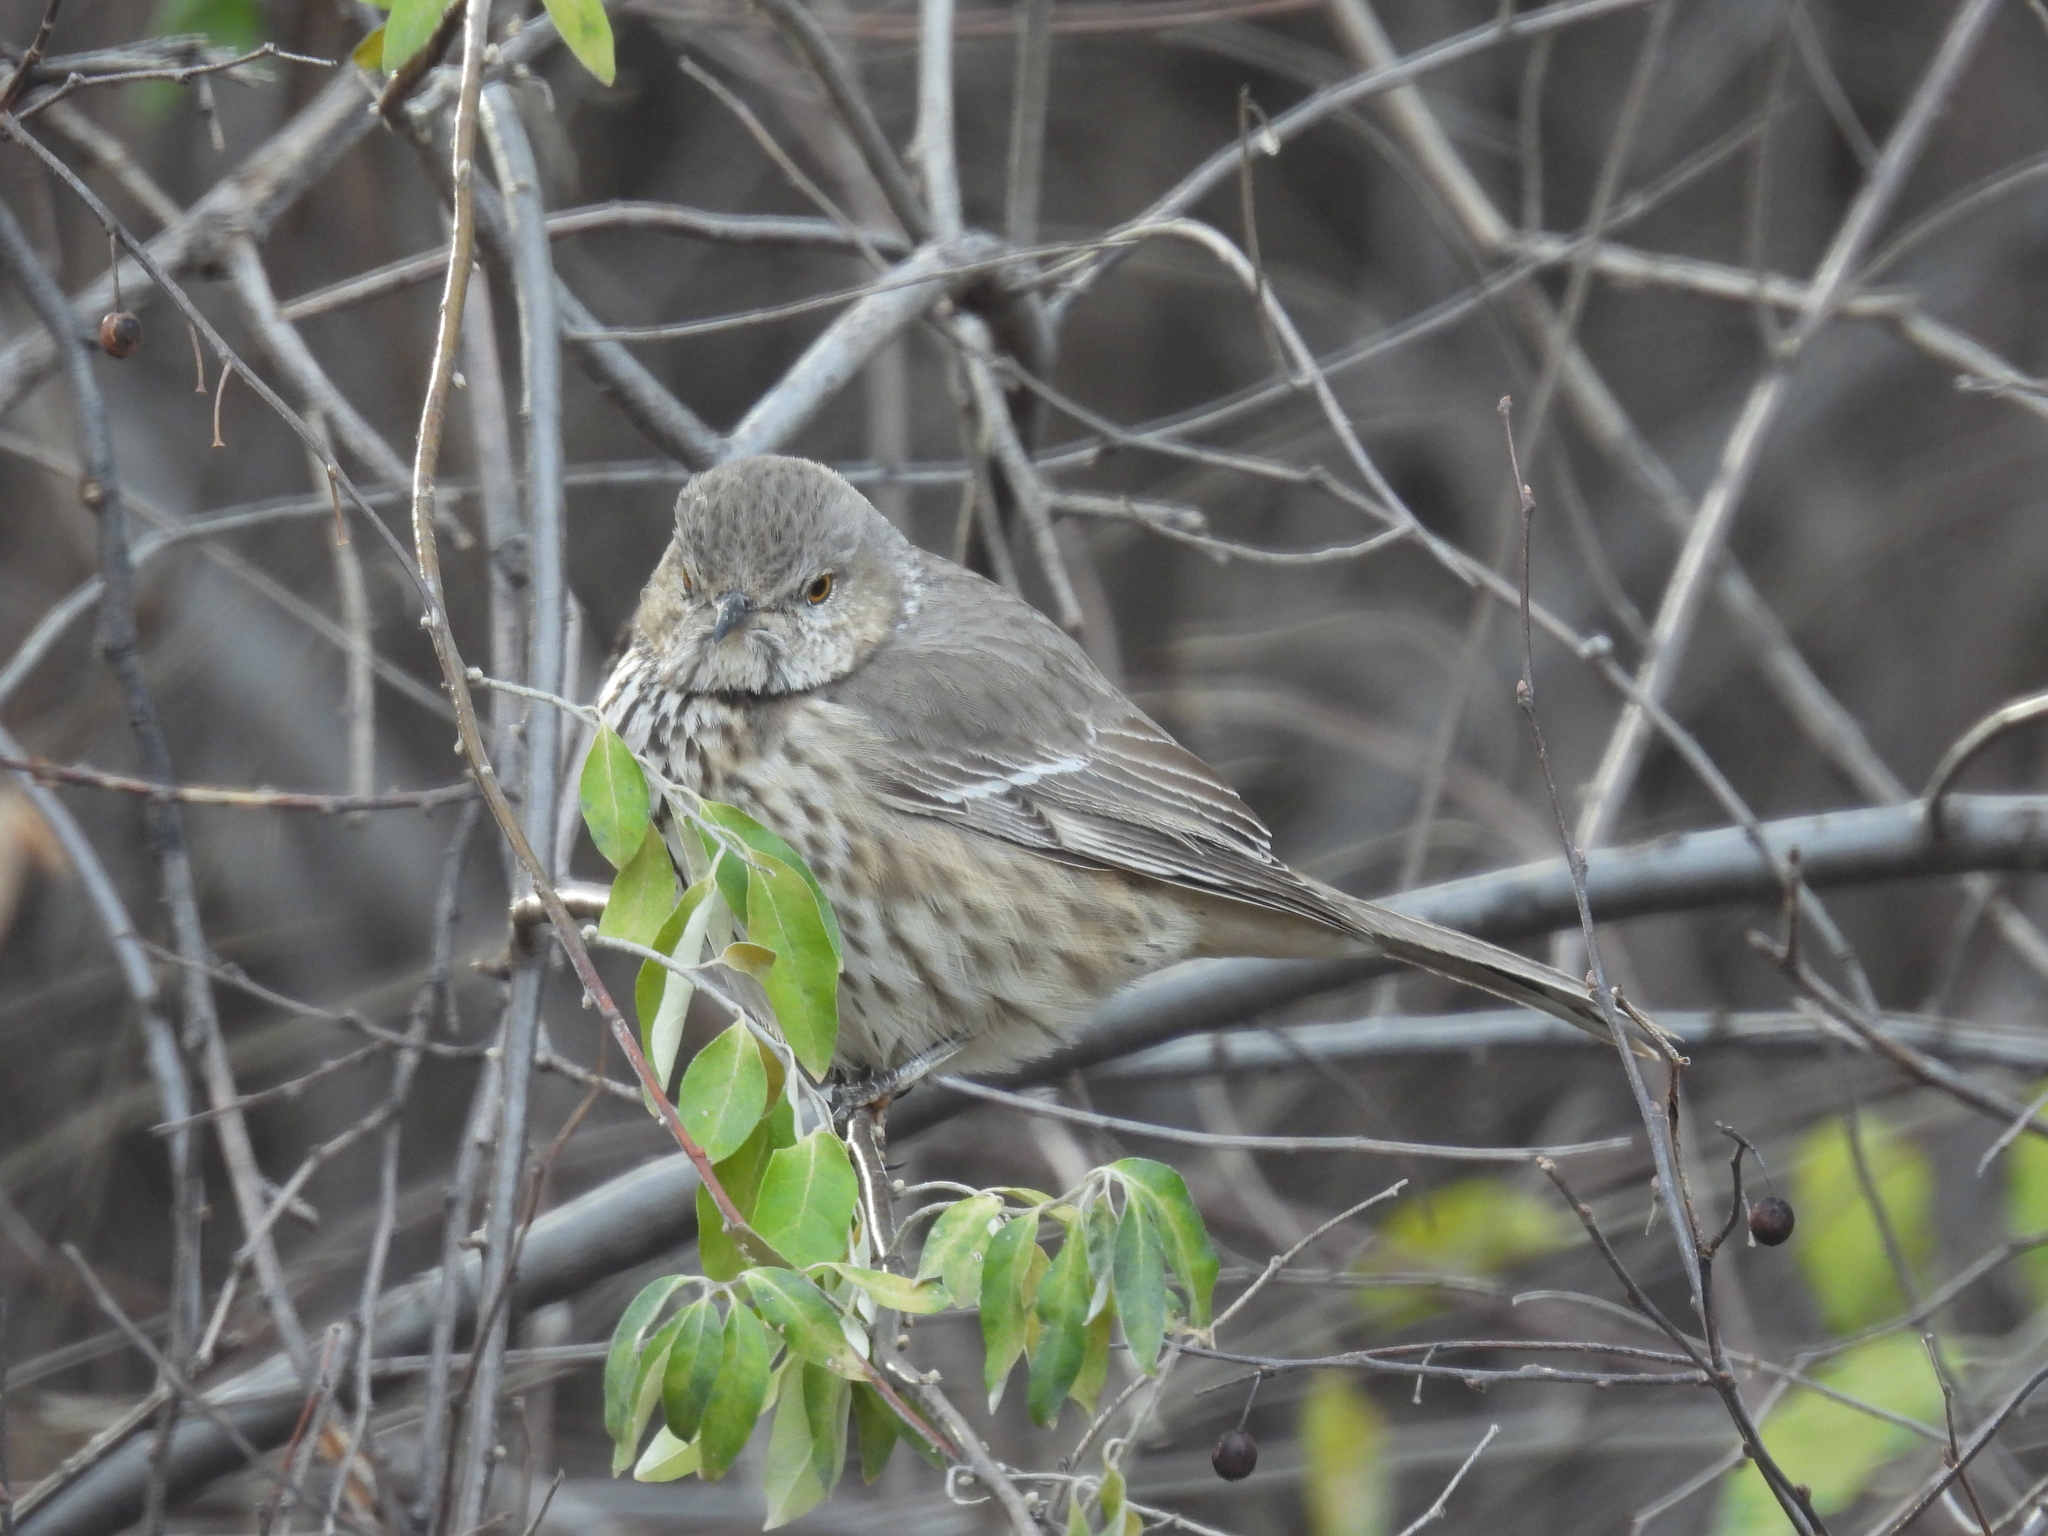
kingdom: Animalia
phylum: Chordata
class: Aves
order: Passeriformes
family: Mimidae
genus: Oreoscoptes
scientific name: Oreoscoptes montanus
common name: Sage thrasher
